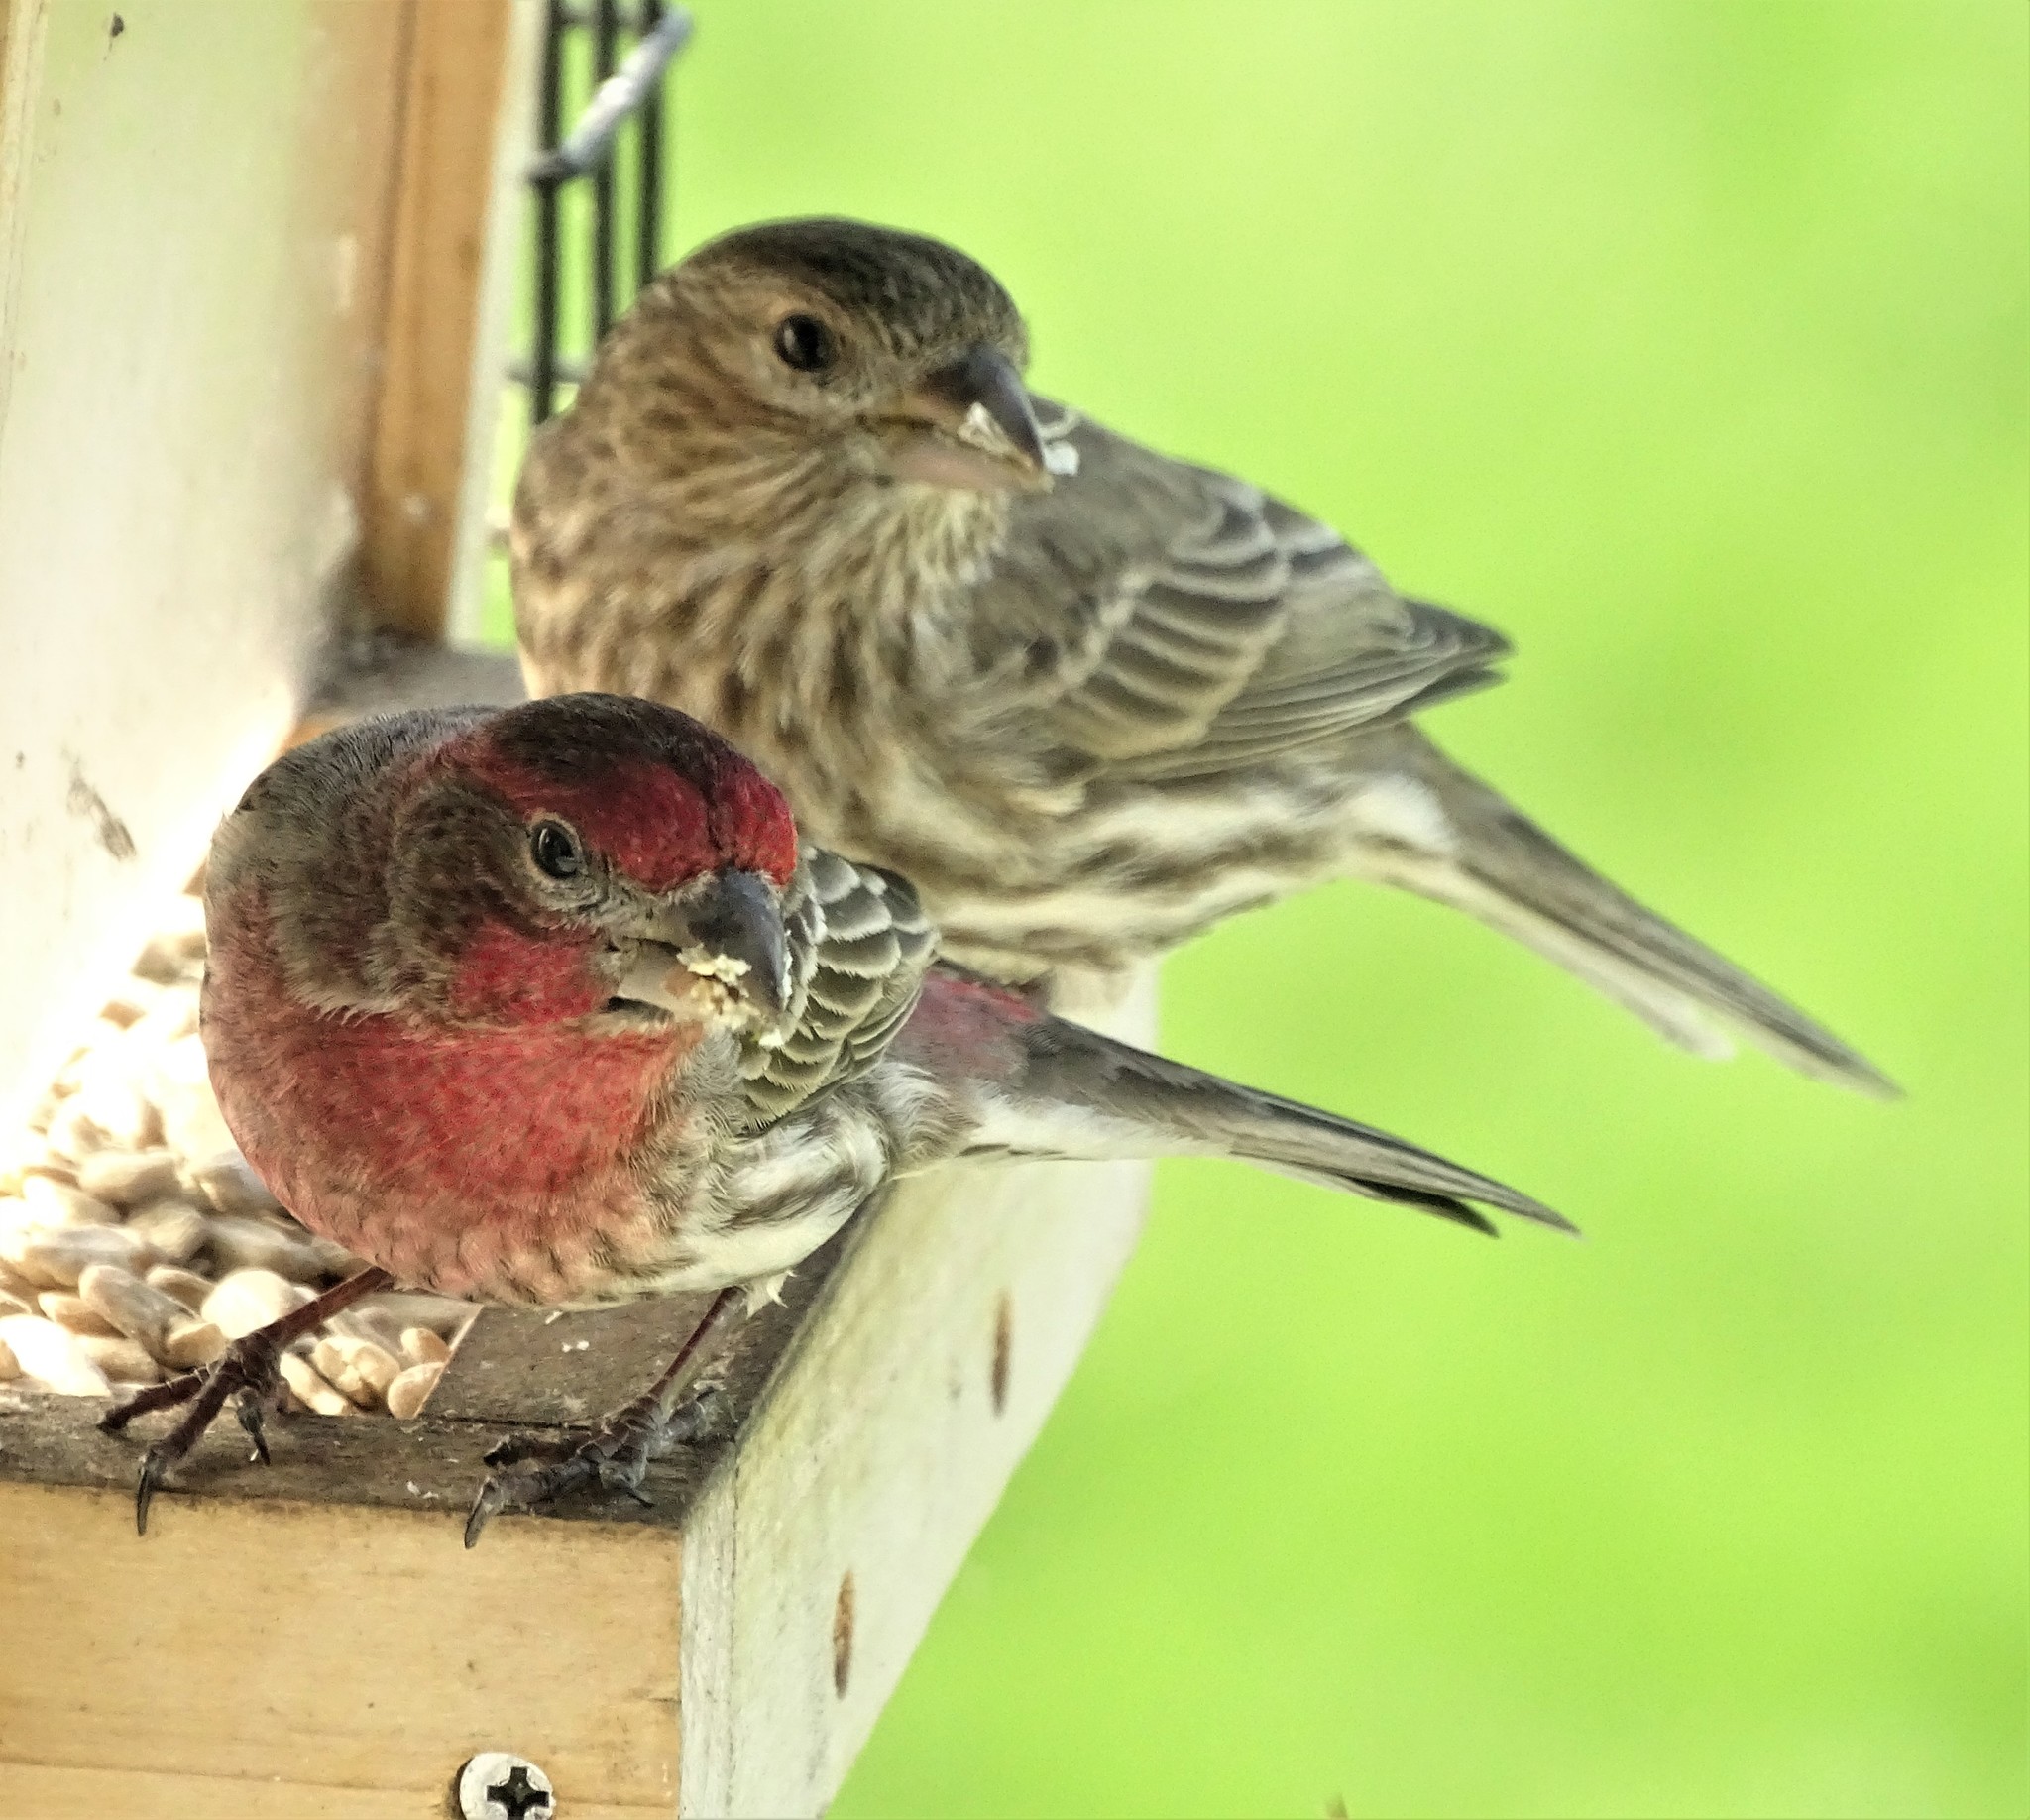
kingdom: Animalia
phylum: Chordata
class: Aves
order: Passeriformes
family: Fringillidae
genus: Haemorhous
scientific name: Haemorhous mexicanus
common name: House finch
